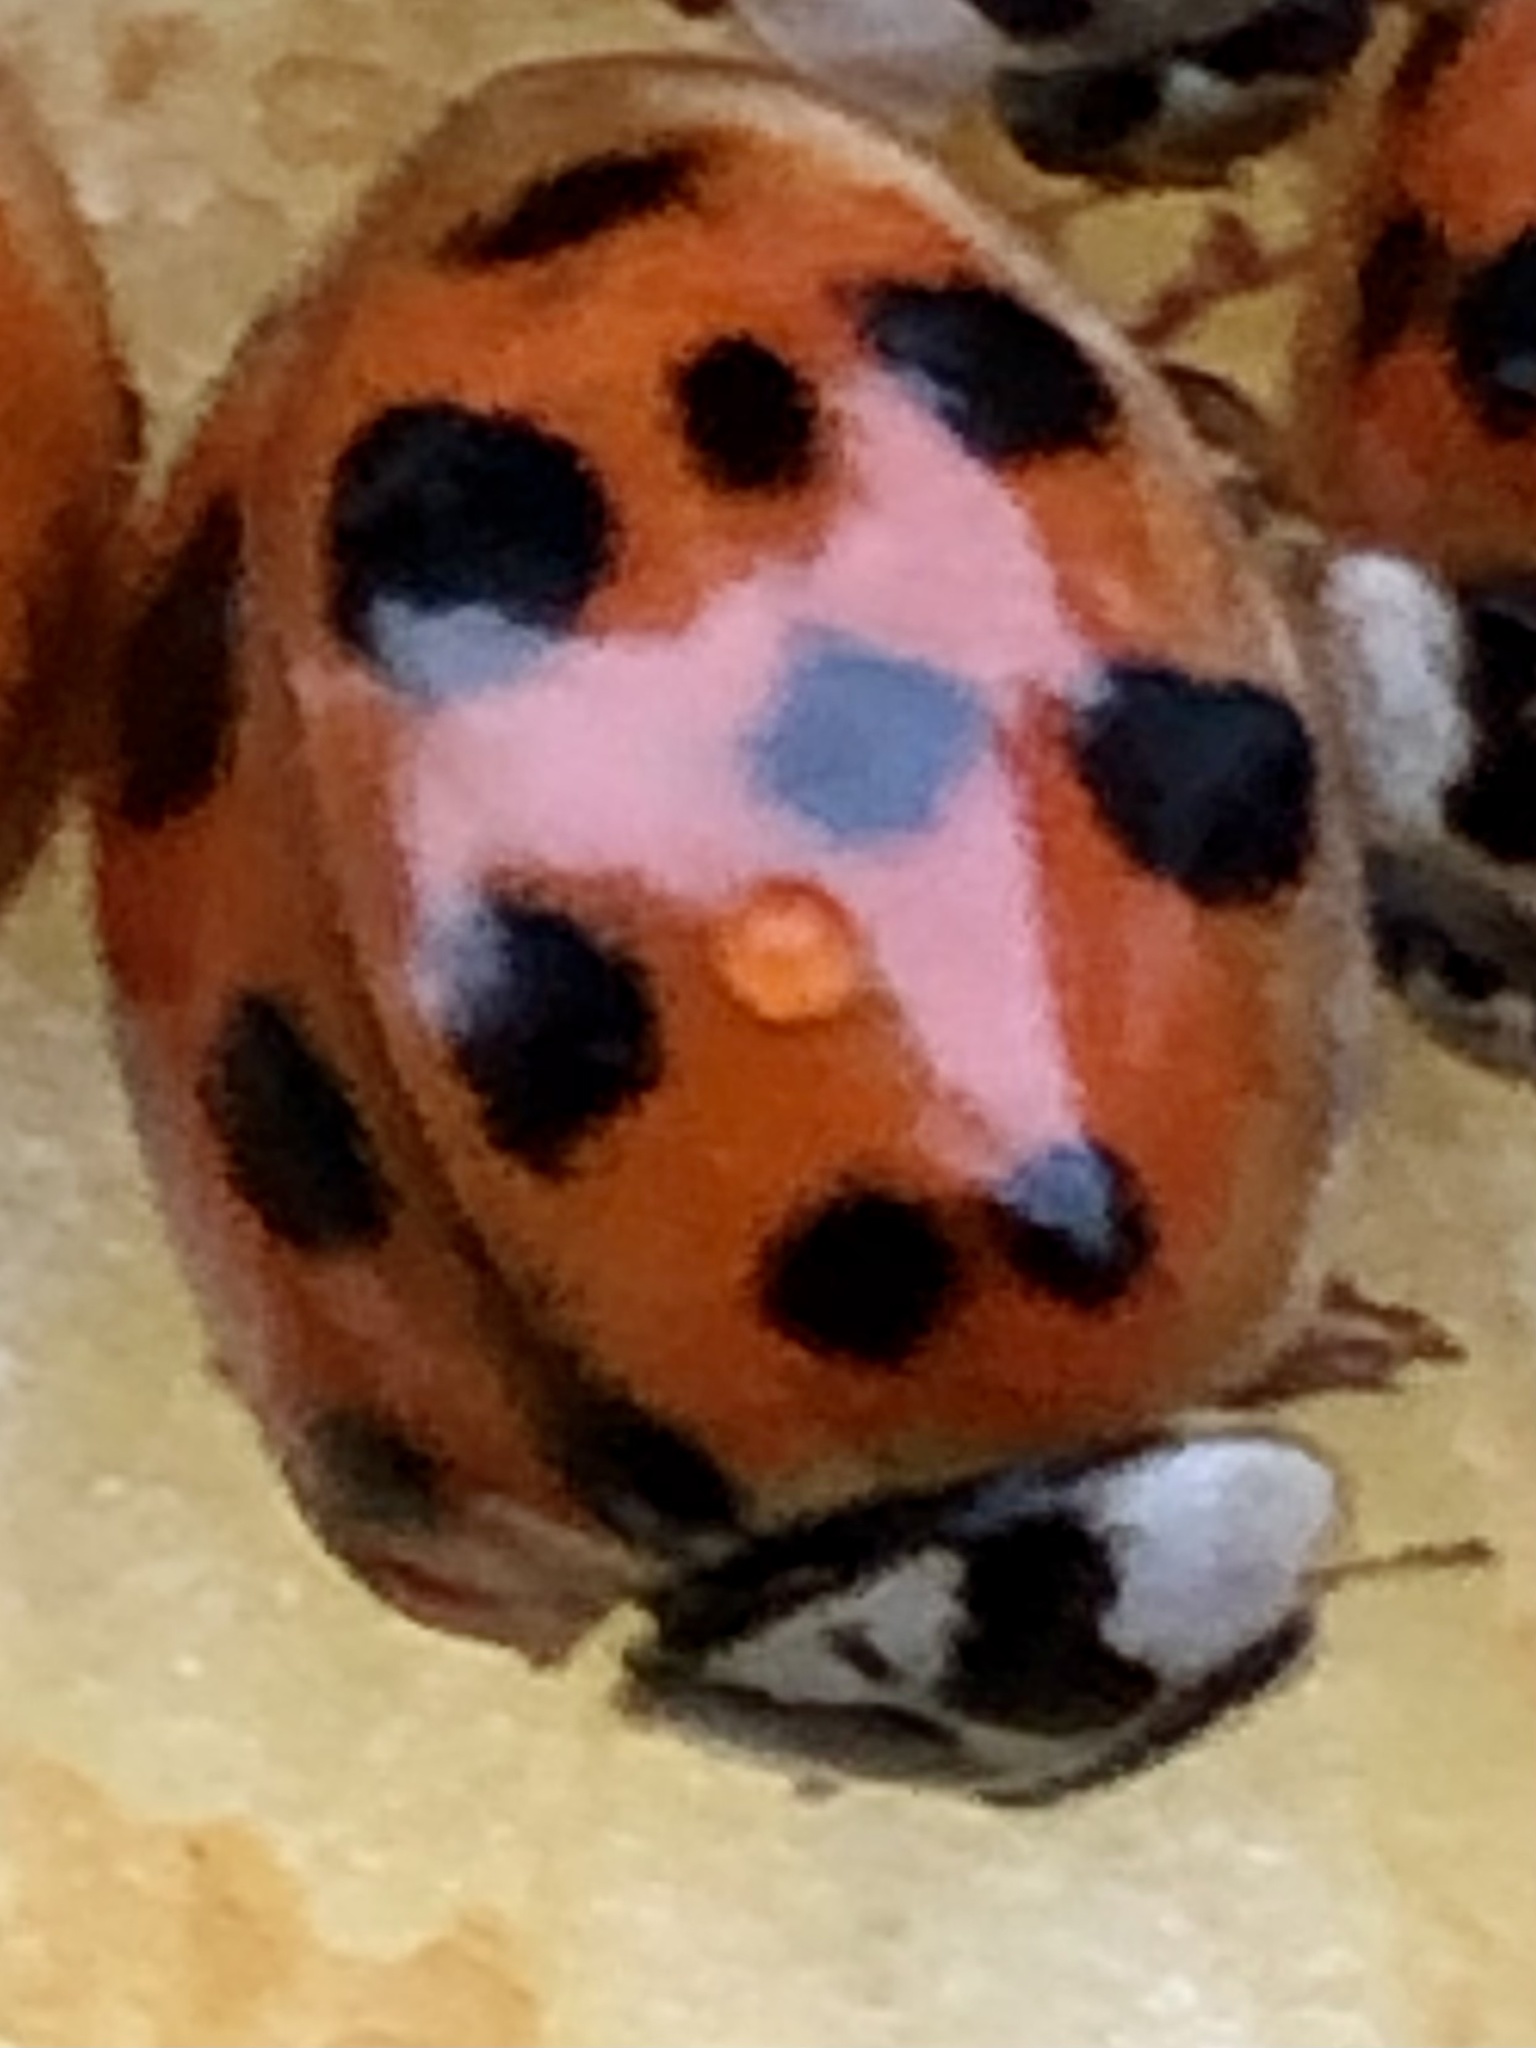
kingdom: Animalia
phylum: Arthropoda
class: Insecta
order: Coleoptera
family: Coccinellidae
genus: Harmonia
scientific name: Harmonia axyridis
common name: Harlequin ladybird
